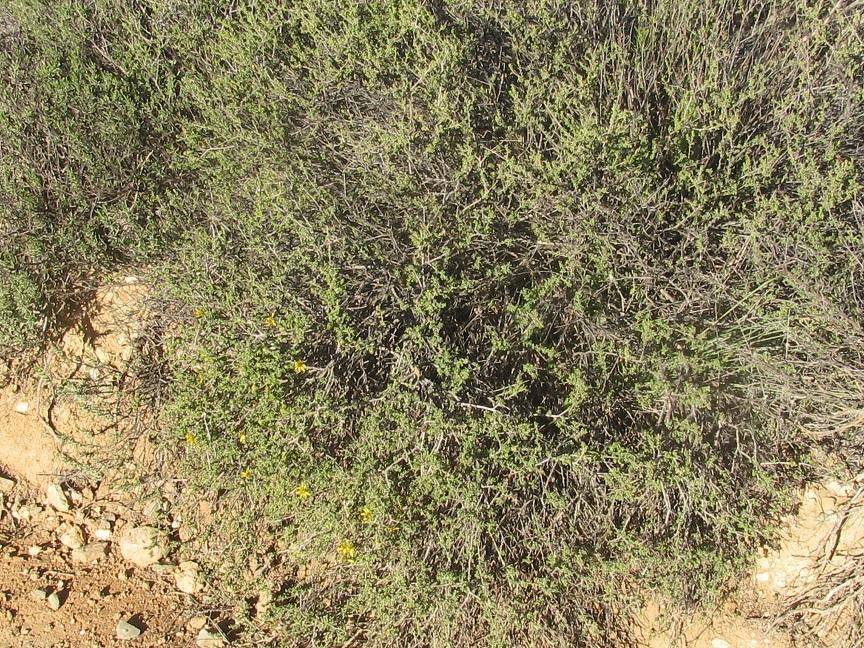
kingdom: Plantae
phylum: Tracheophyta
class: Magnoliopsida
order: Asterales
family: Asteraceae
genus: Osteospermum
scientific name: Osteospermum leptolobum
